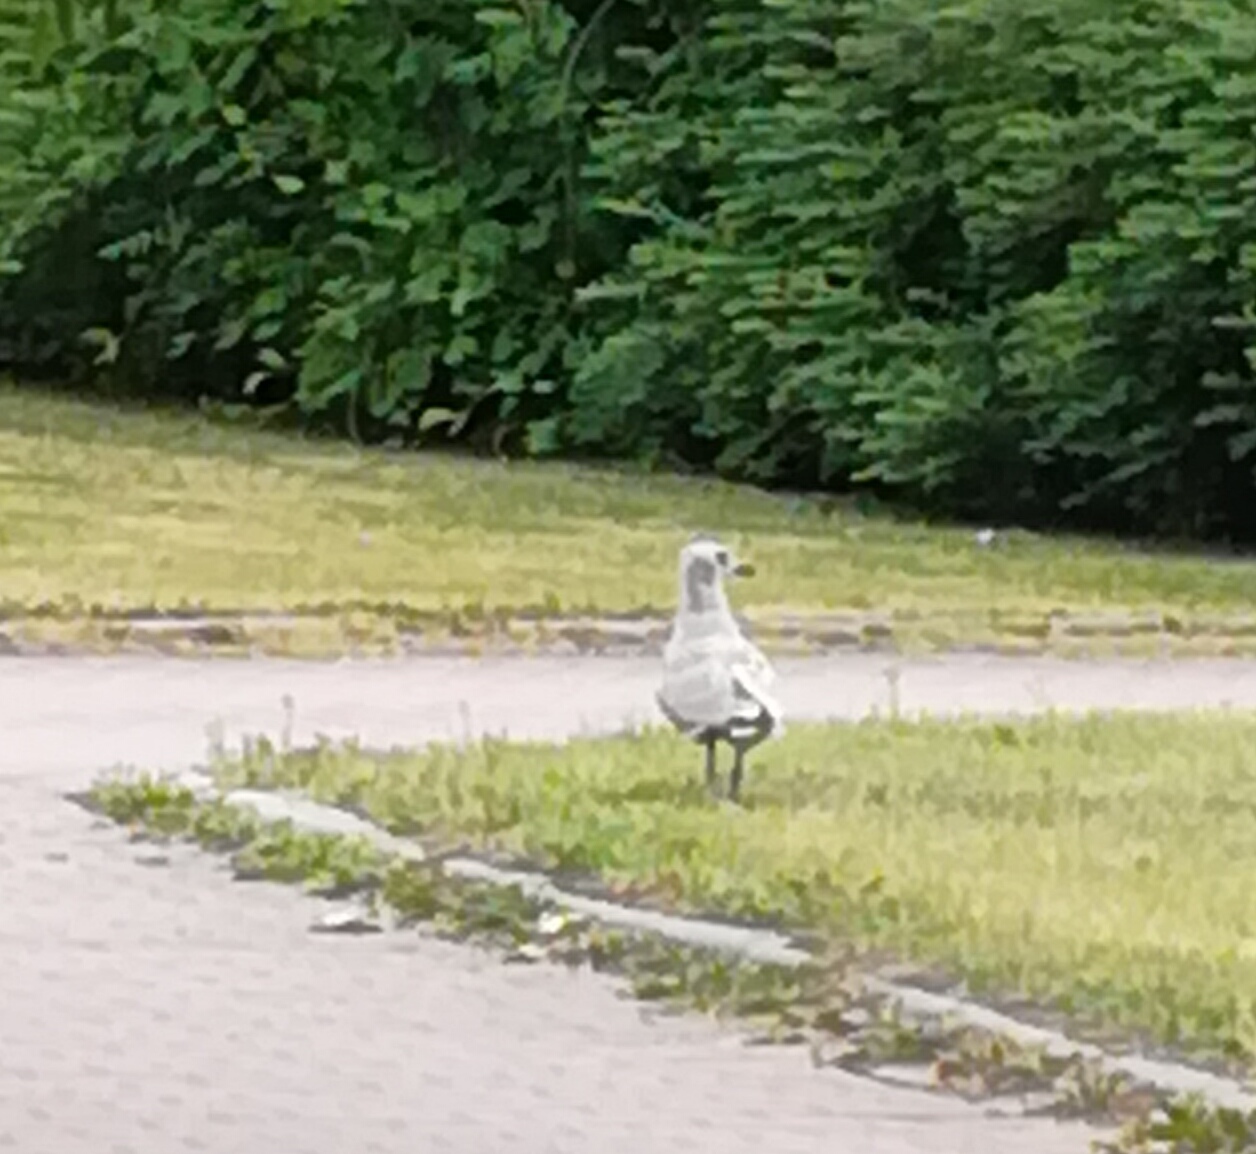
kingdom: Animalia
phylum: Chordata
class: Aves
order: Charadriiformes
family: Laridae
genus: Larus
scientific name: Larus canus
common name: Mew gull
